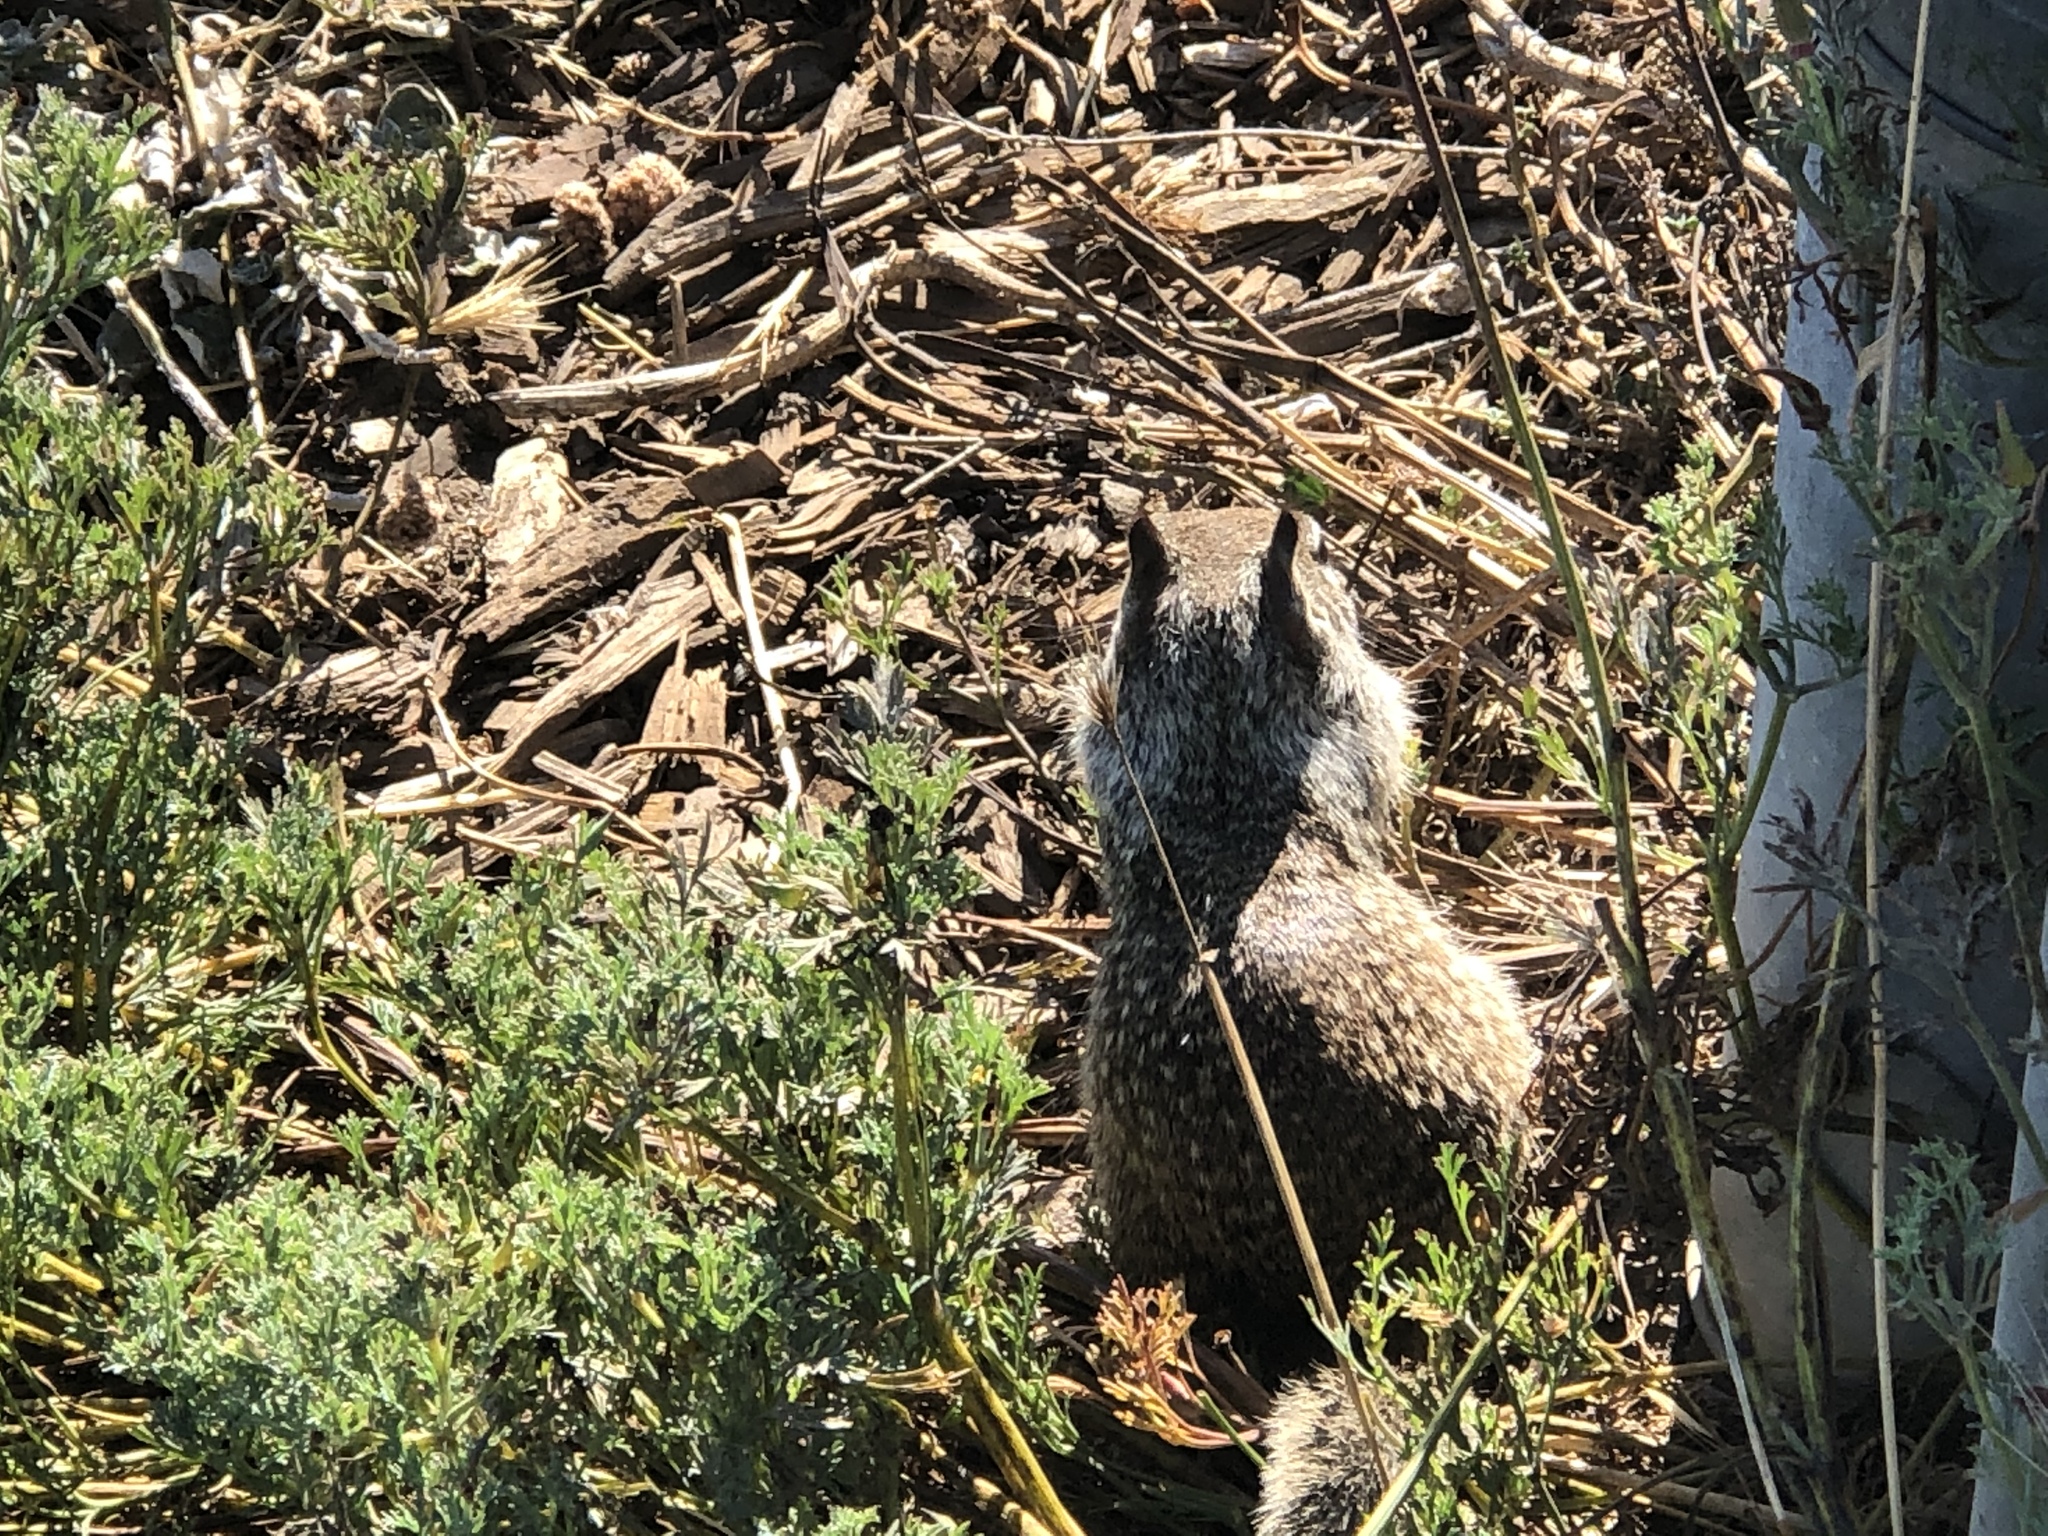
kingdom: Animalia
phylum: Chordata
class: Mammalia
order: Rodentia
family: Sciuridae
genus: Otospermophilus
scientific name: Otospermophilus beecheyi
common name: California ground squirrel
